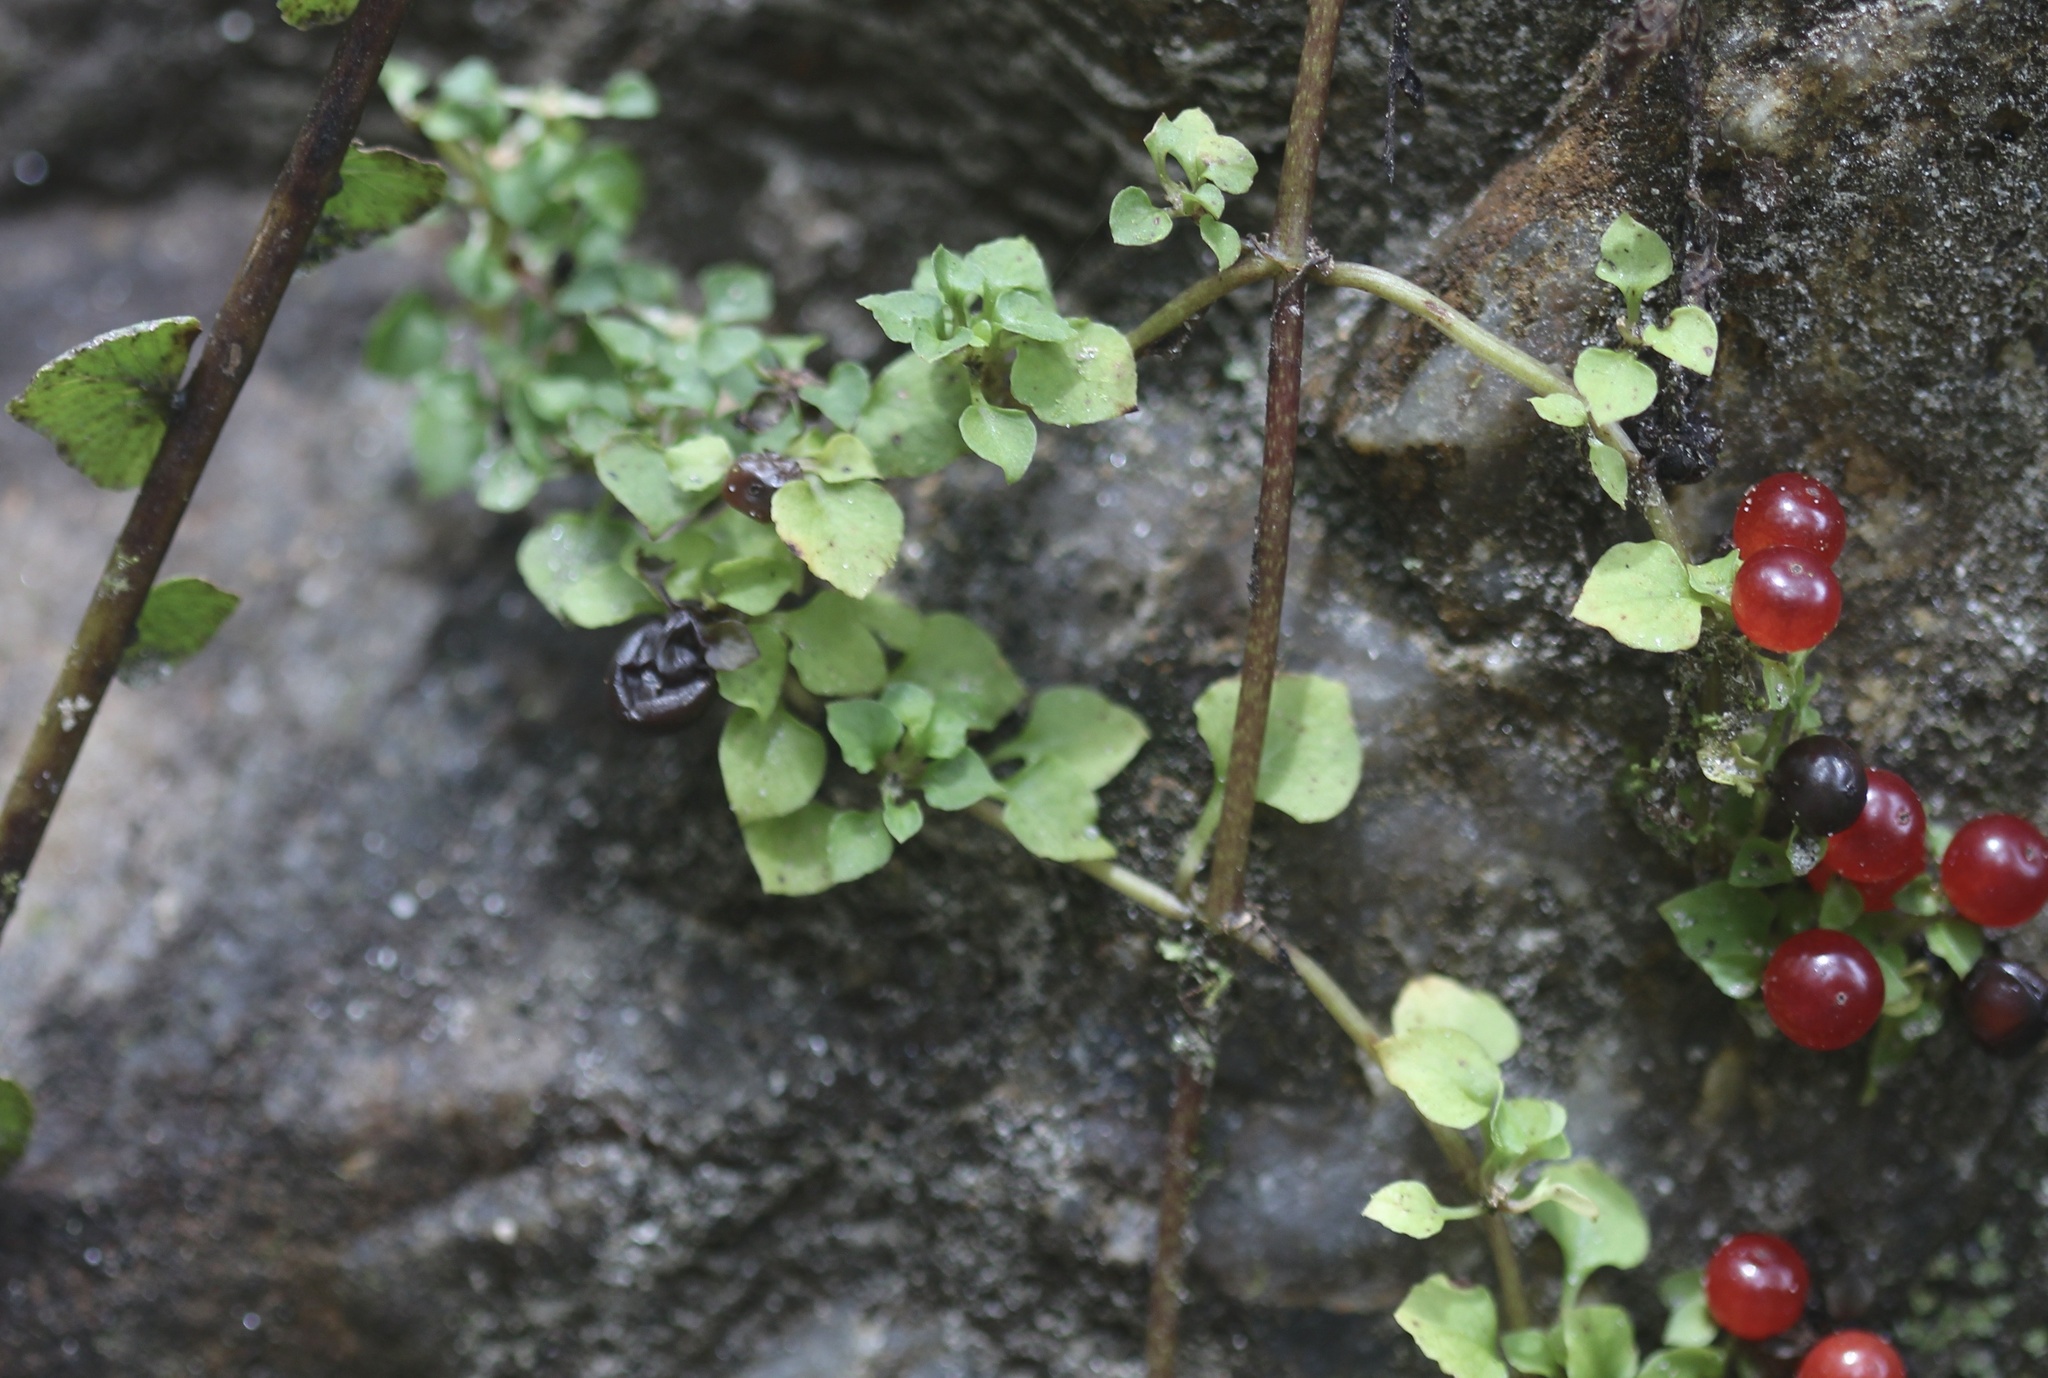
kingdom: Plantae
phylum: Tracheophyta
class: Magnoliopsida
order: Gentianales
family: Rubiaceae
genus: Nertera
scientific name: Nertera granadensis
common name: Beadplant
